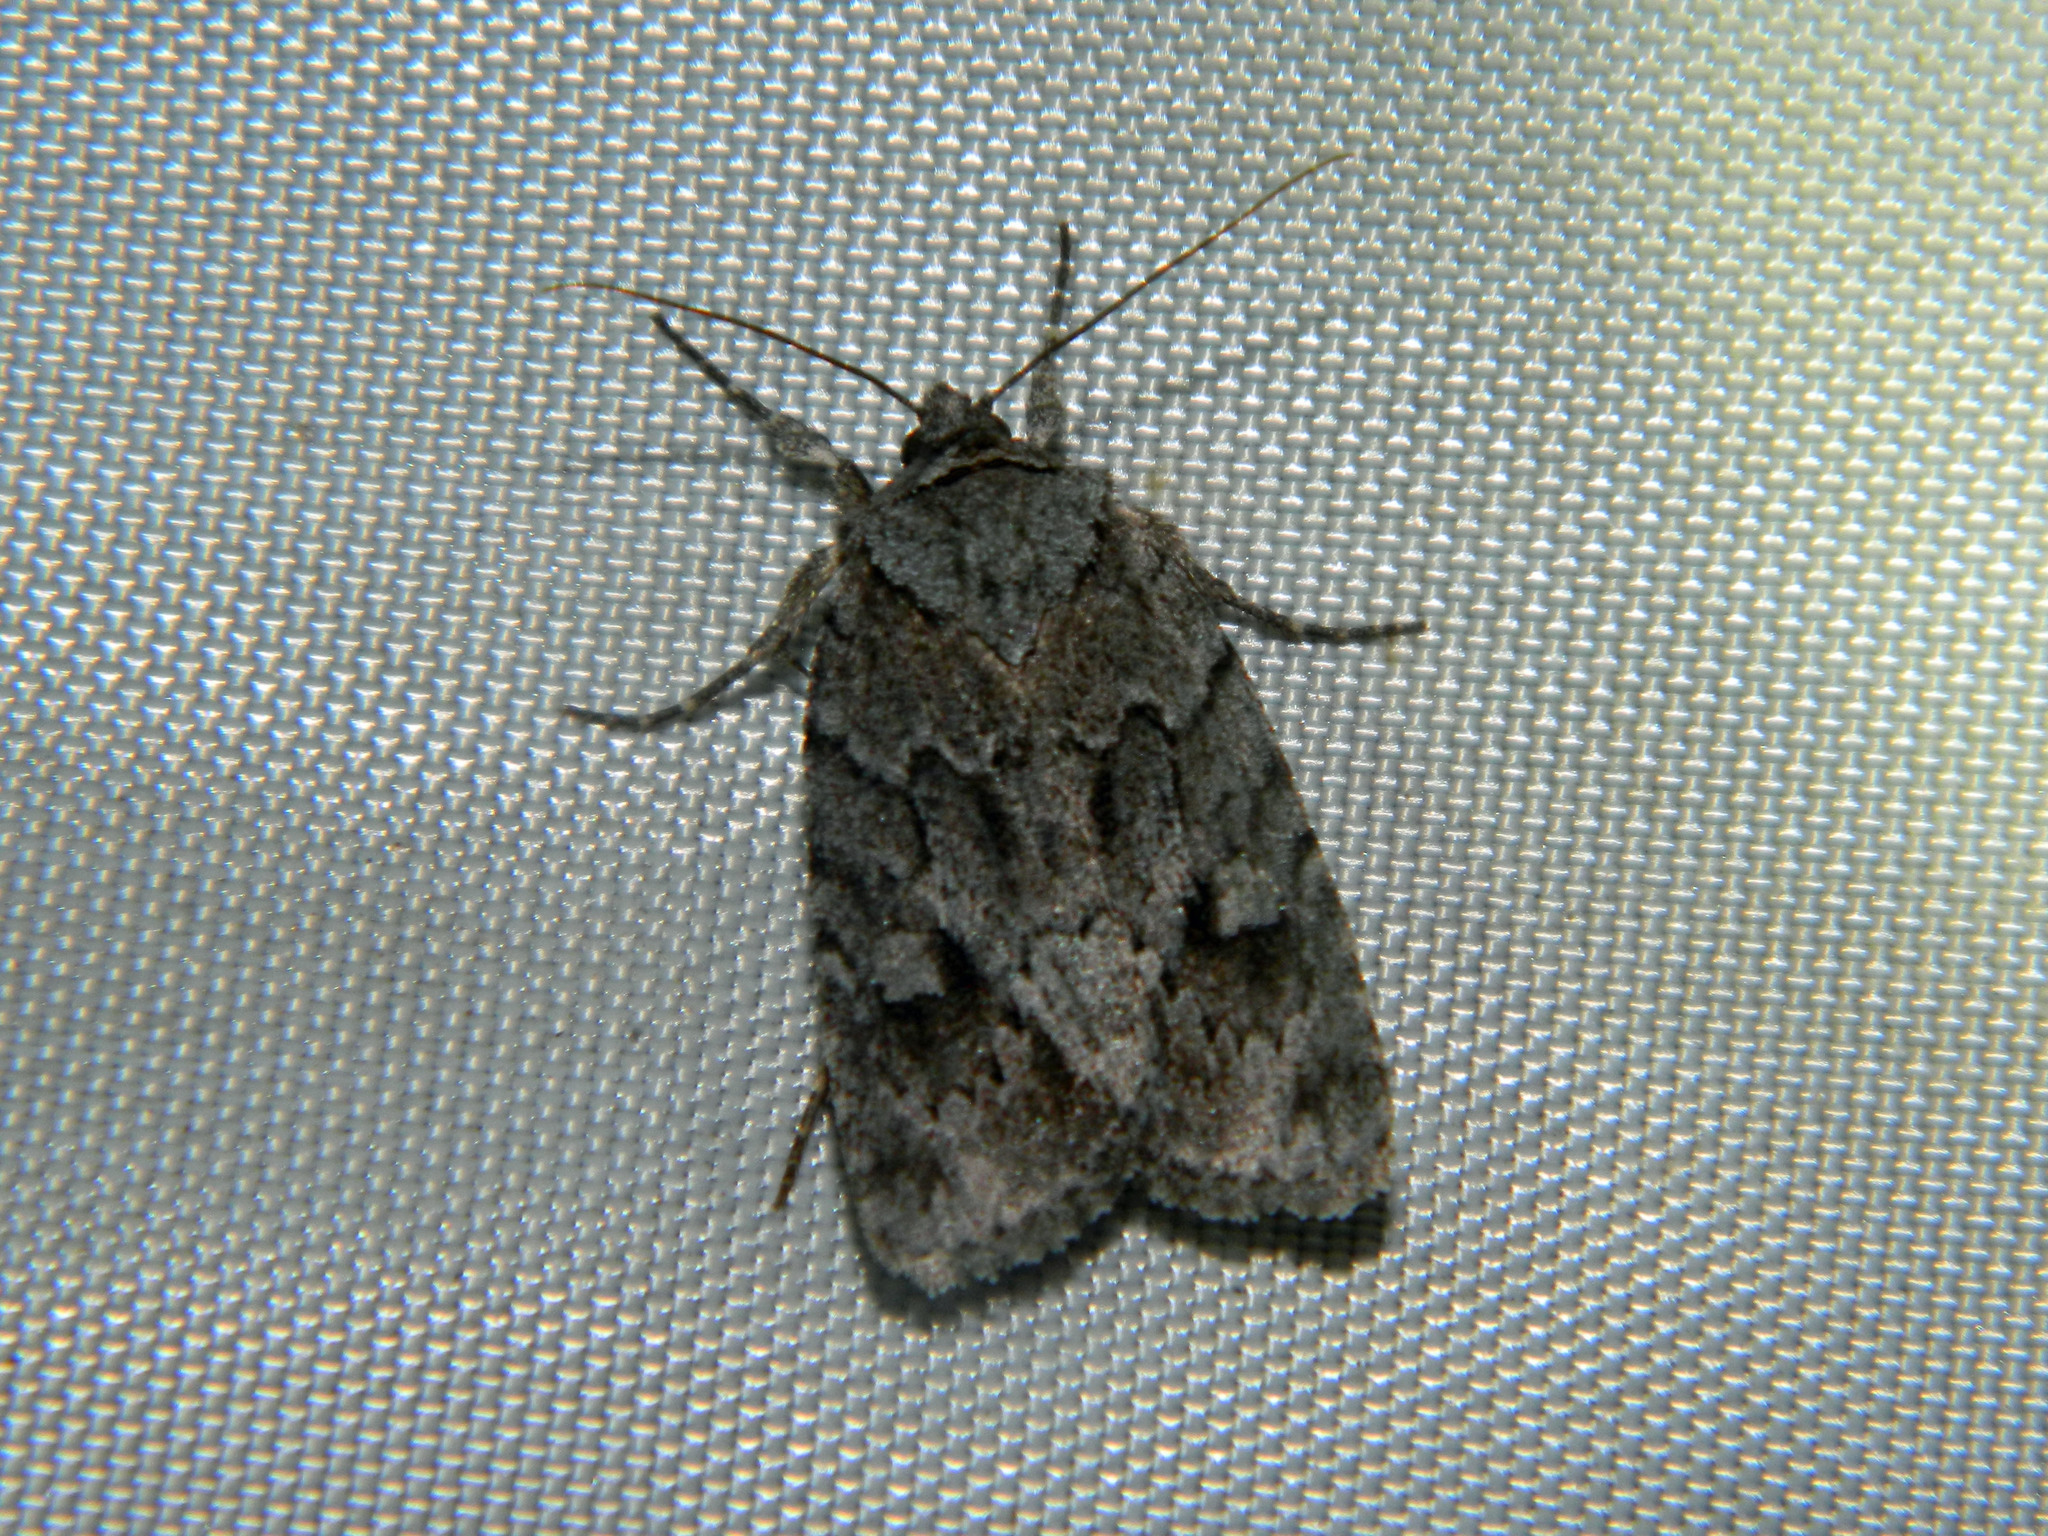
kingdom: Animalia
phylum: Arthropoda
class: Insecta
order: Lepidoptera
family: Noctuidae
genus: Sympistis
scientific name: Sympistis dentata
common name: Blueberry sallow
